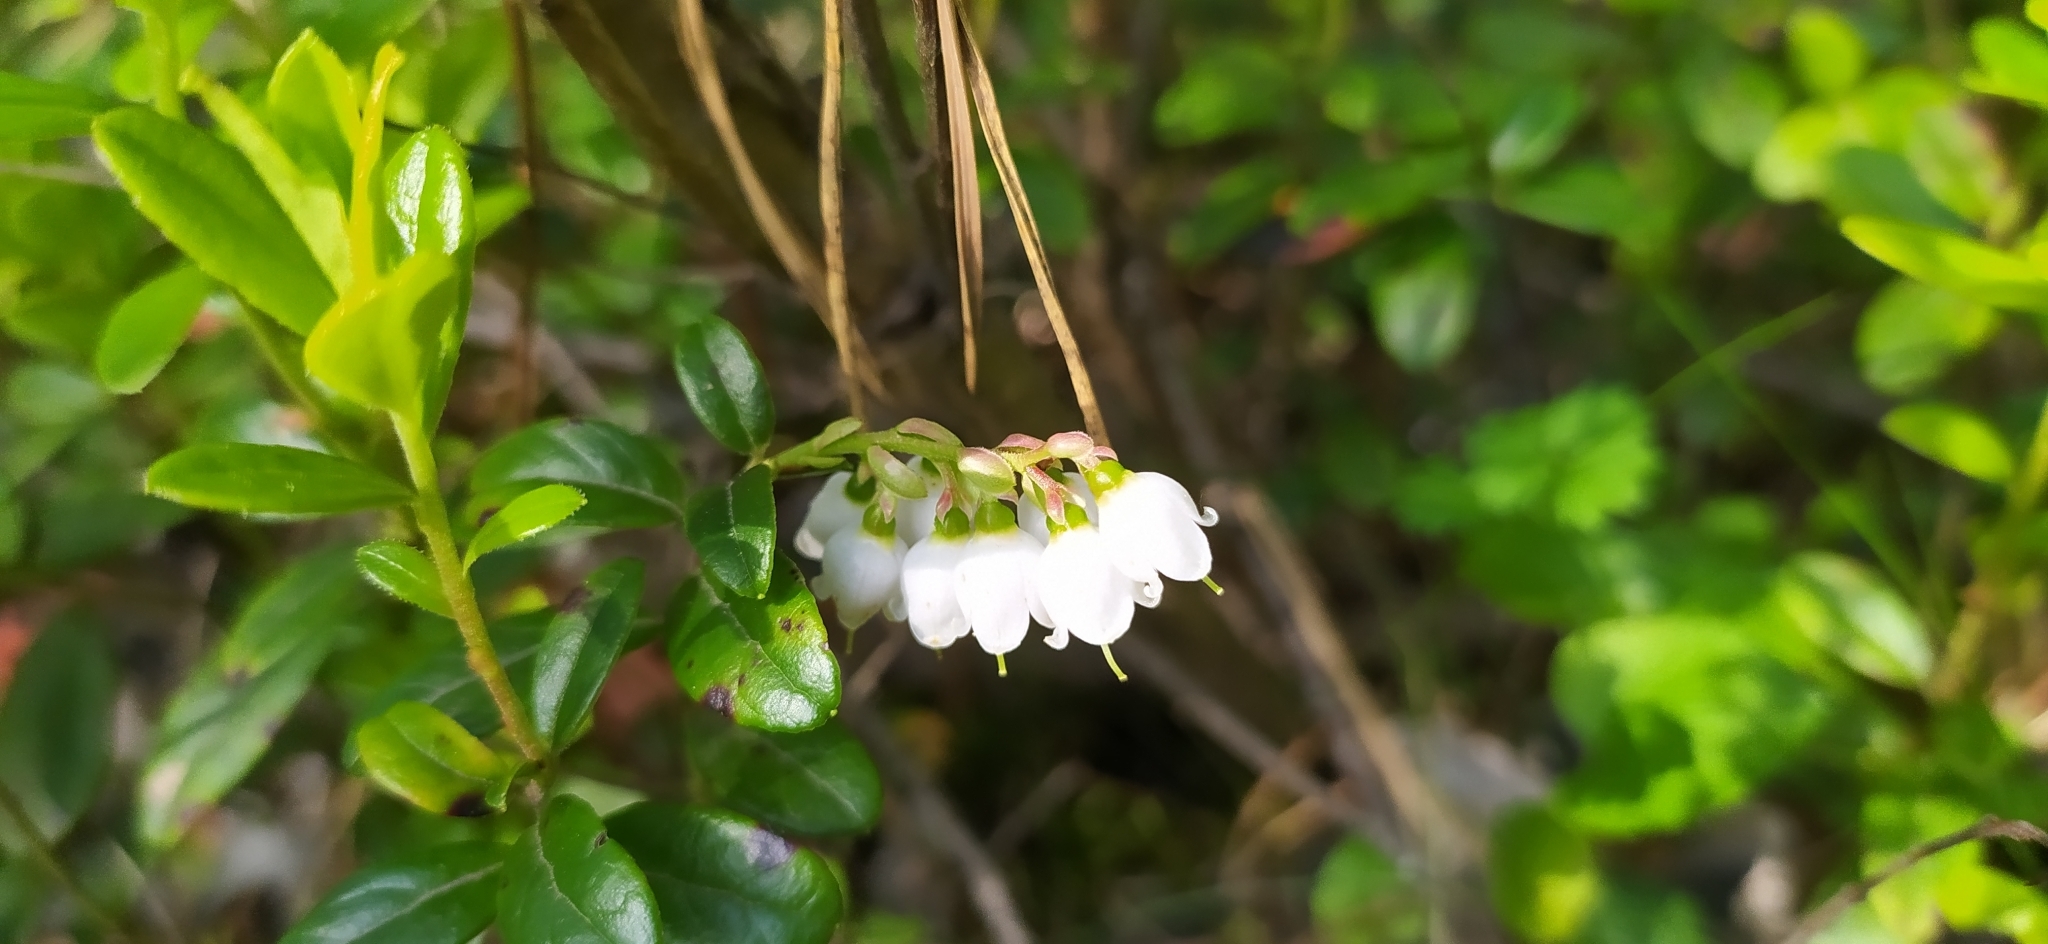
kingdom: Plantae
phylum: Tracheophyta
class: Magnoliopsida
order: Ericales
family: Ericaceae
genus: Vaccinium
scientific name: Vaccinium vitis-idaea
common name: Cowberry
